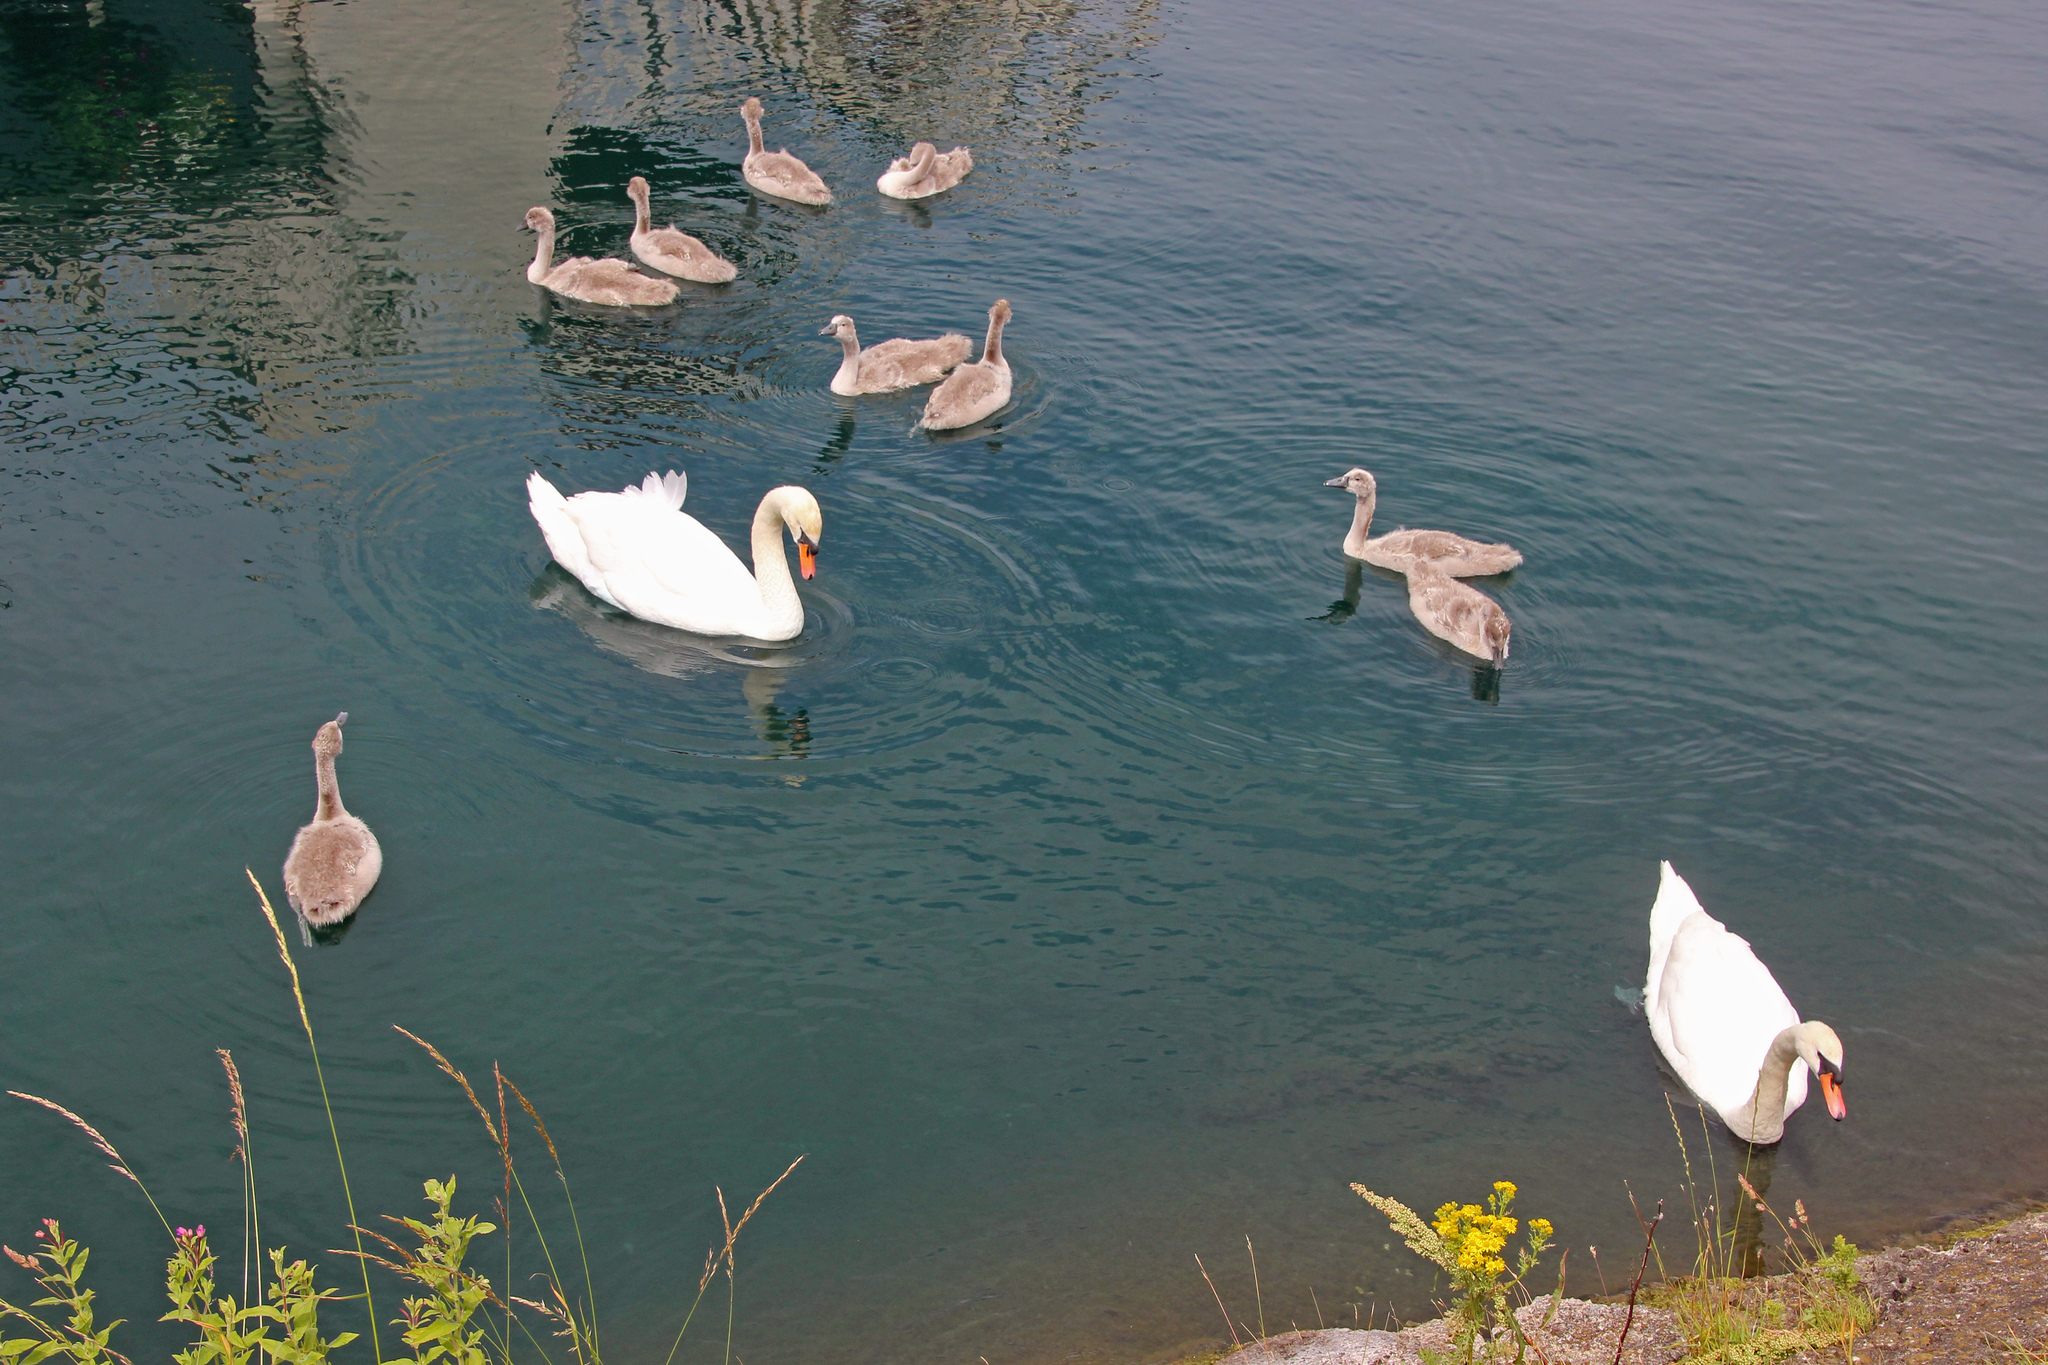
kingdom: Animalia
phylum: Chordata
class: Aves
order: Anseriformes
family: Anatidae
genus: Cygnus
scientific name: Cygnus olor
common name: Mute swan
